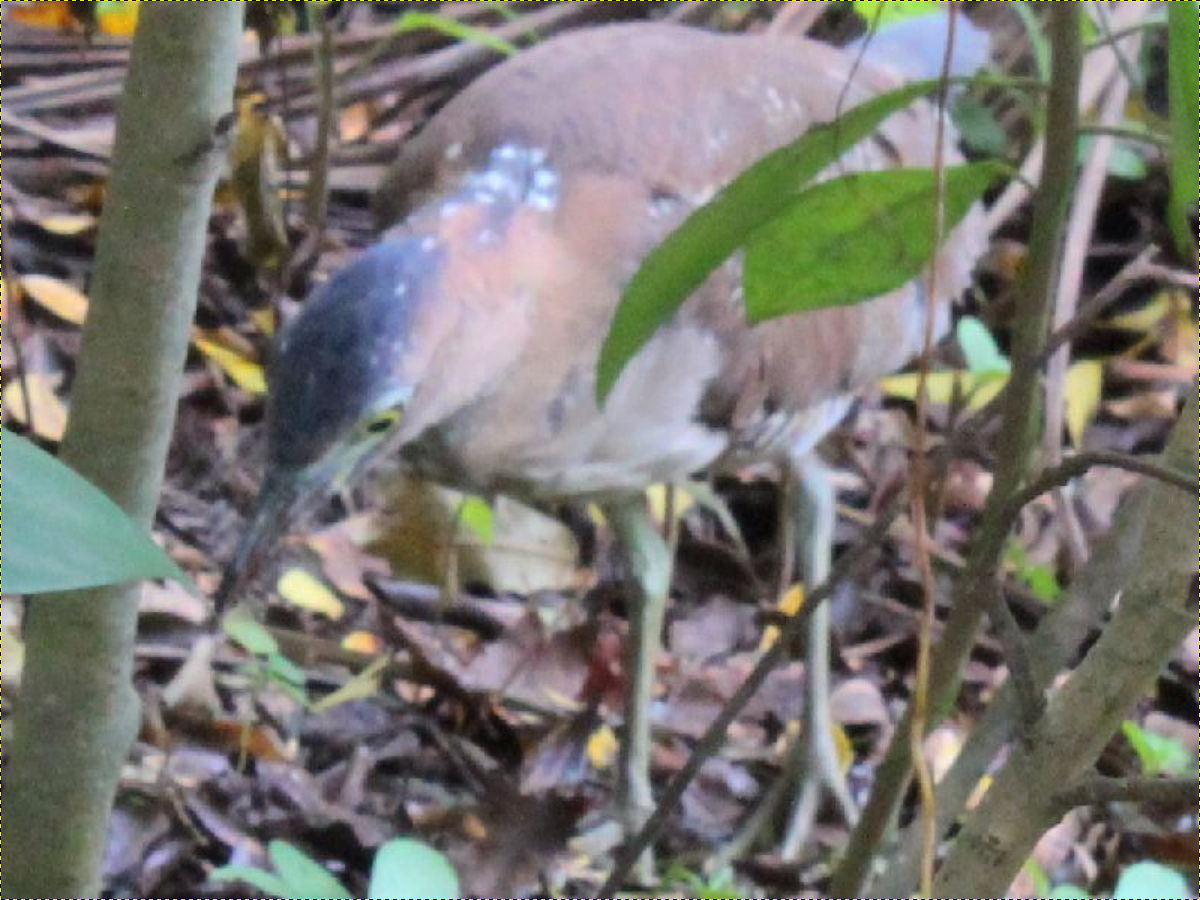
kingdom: Animalia
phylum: Chordata
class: Aves
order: Pelecaniformes
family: Ardeidae
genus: Gorsachius
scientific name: Gorsachius melanolophus
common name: Malayan night heron
